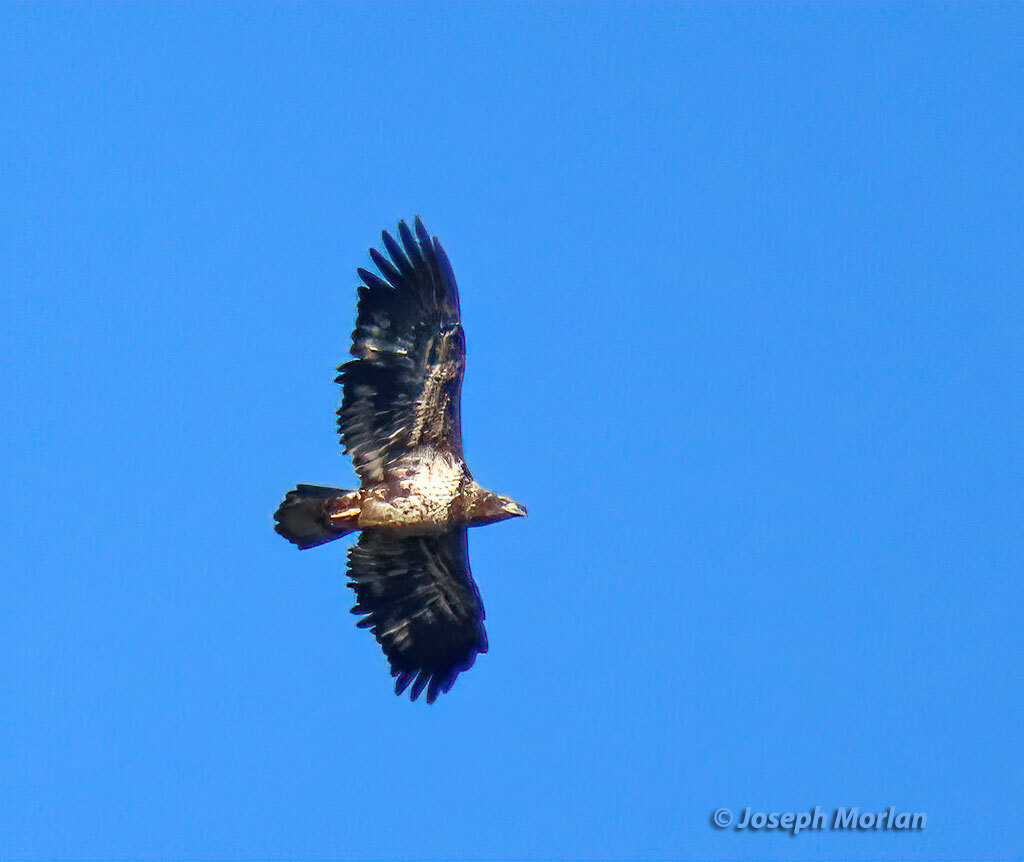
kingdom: Animalia
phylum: Chordata
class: Aves
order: Accipitriformes
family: Accipitridae
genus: Haliaeetus
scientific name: Haliaeetus leucocephalus
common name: Bald eagle
